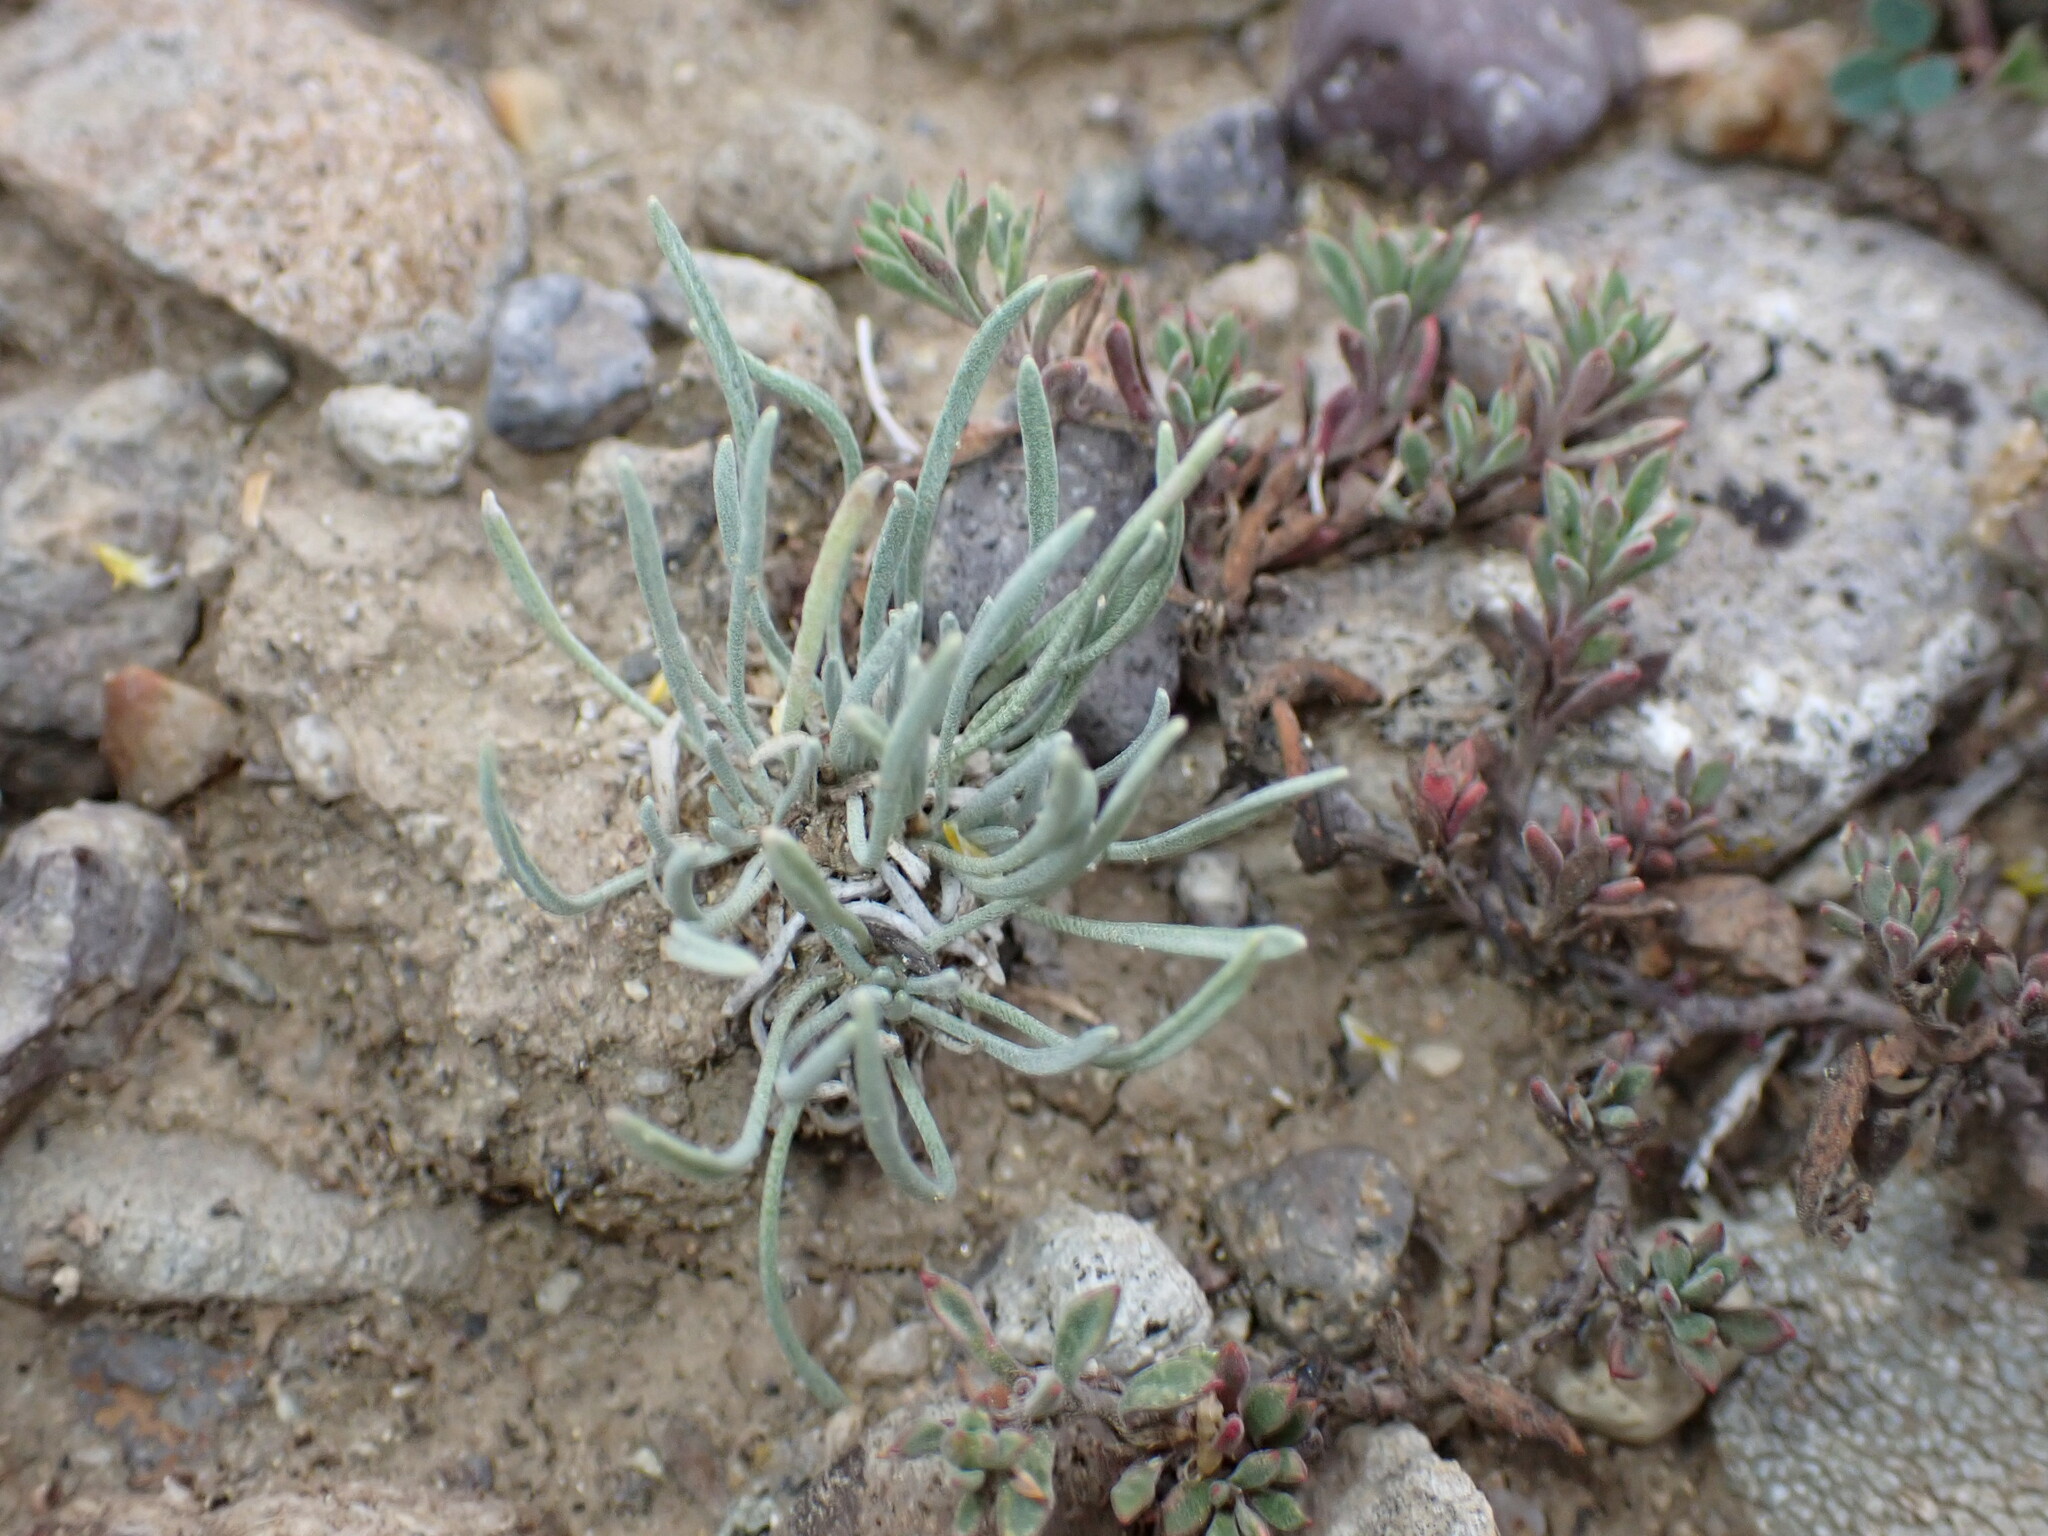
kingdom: Plantae
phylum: Tracheophyta
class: Magnoliopsida
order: Brassicales
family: Brassicaceae
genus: Physaria
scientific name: Physaria parvula
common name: Pygmy bladderpod
